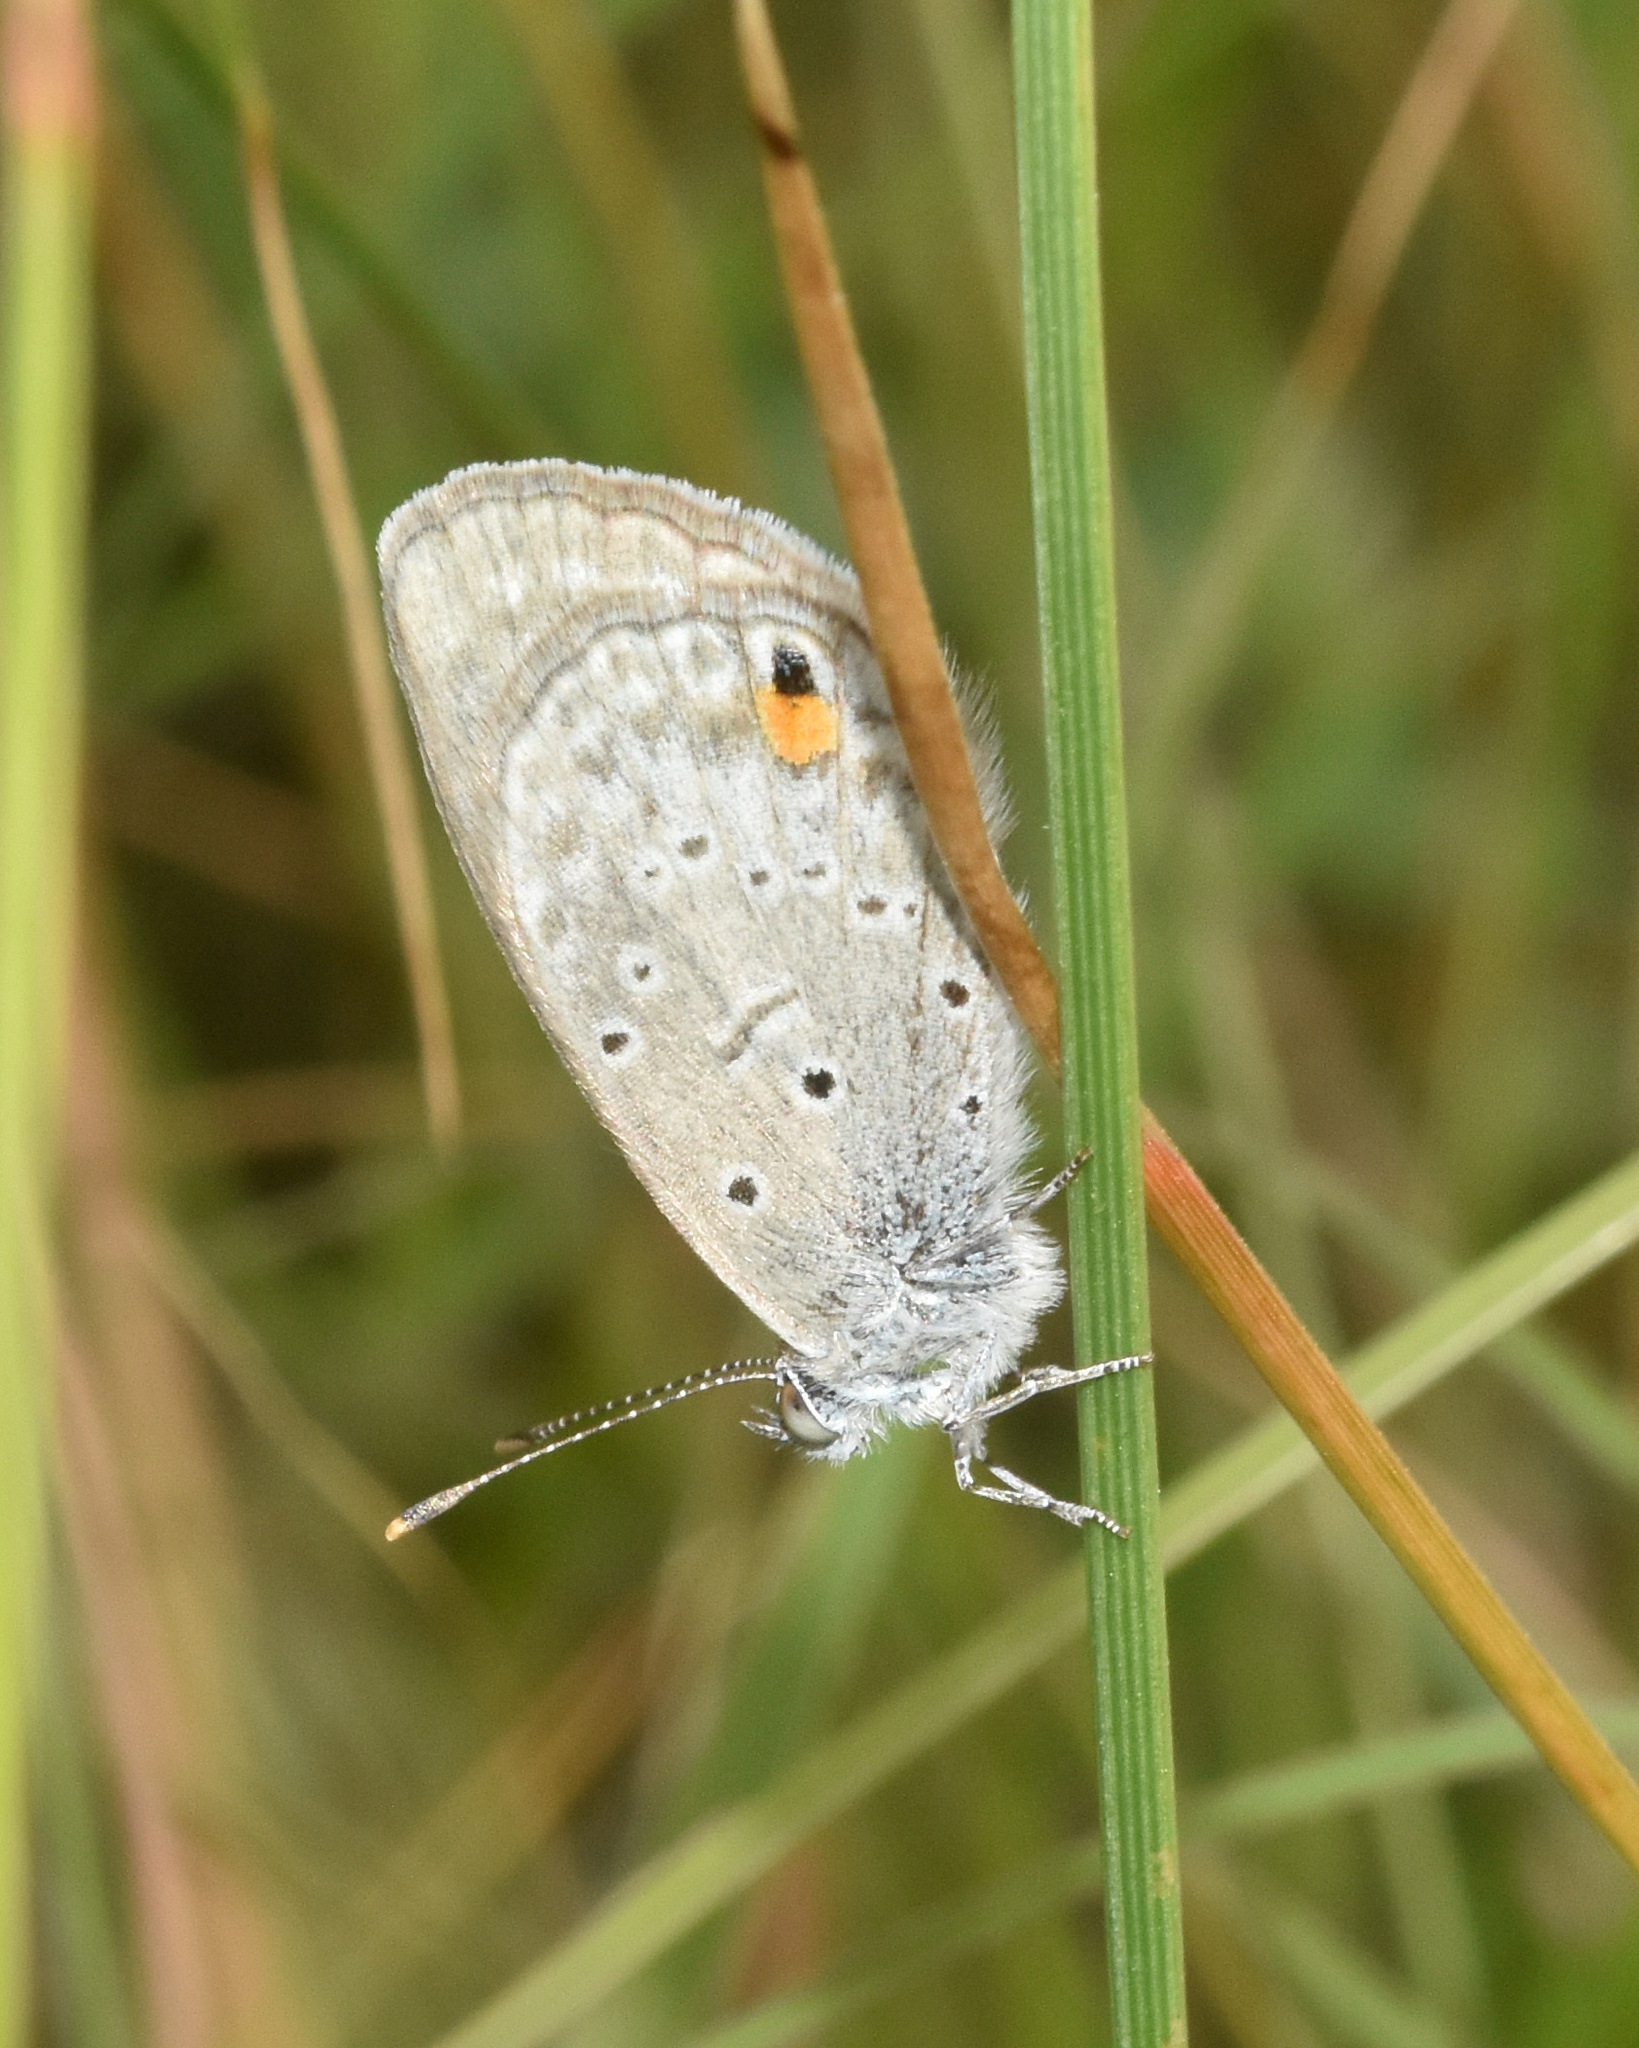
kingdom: Animalia
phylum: Arthropoda
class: Insecta
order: Lepidoptera
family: Lycaenidae
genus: Eicochrysops
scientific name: Eicochrysops messapus
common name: Cupreous blue
